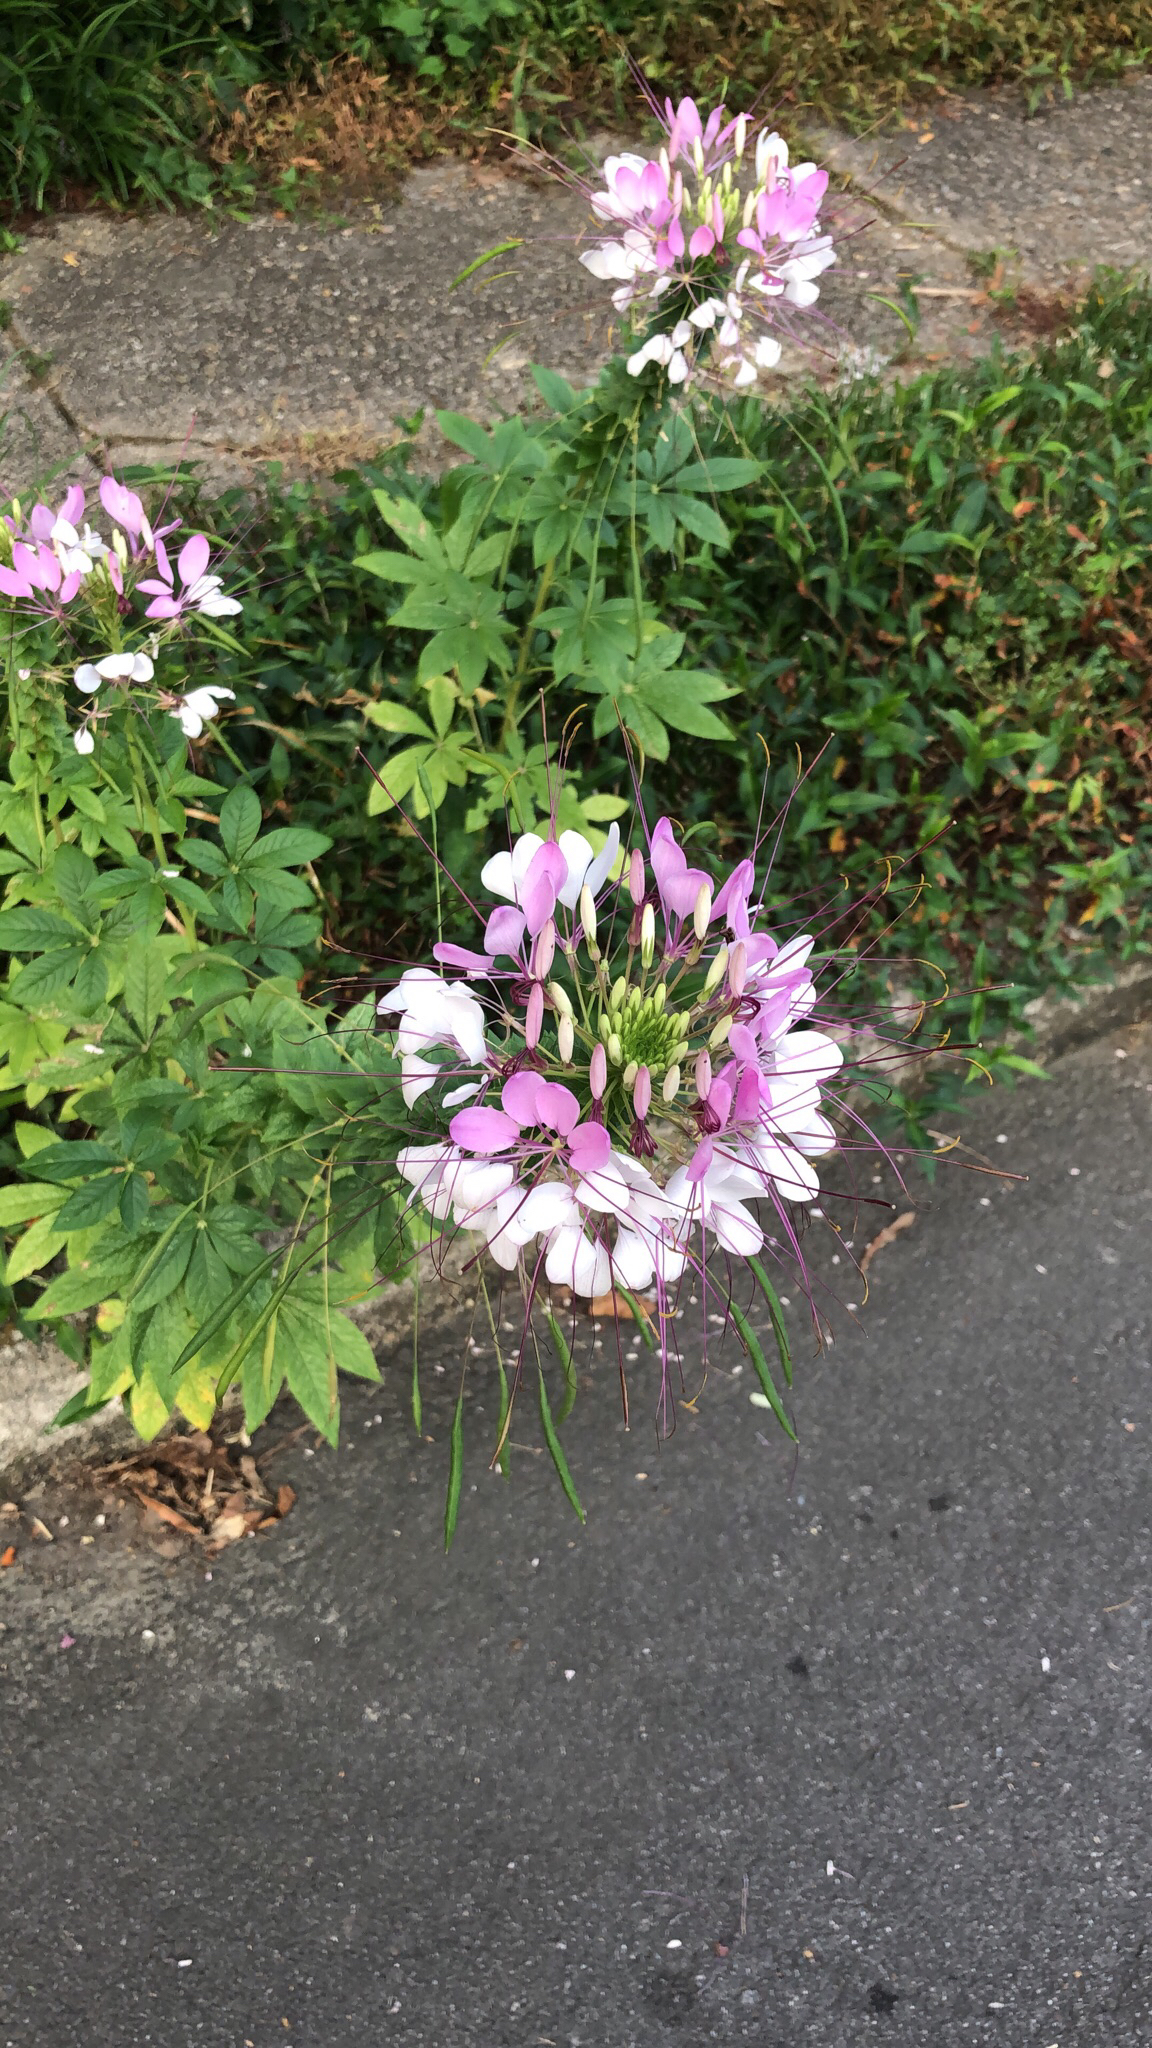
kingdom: Plantae
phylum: Tracheophyta
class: Magnoliopsida
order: Brassicales
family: Cleomaceae
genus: Tarenaya
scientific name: Tarenaya houtteana
